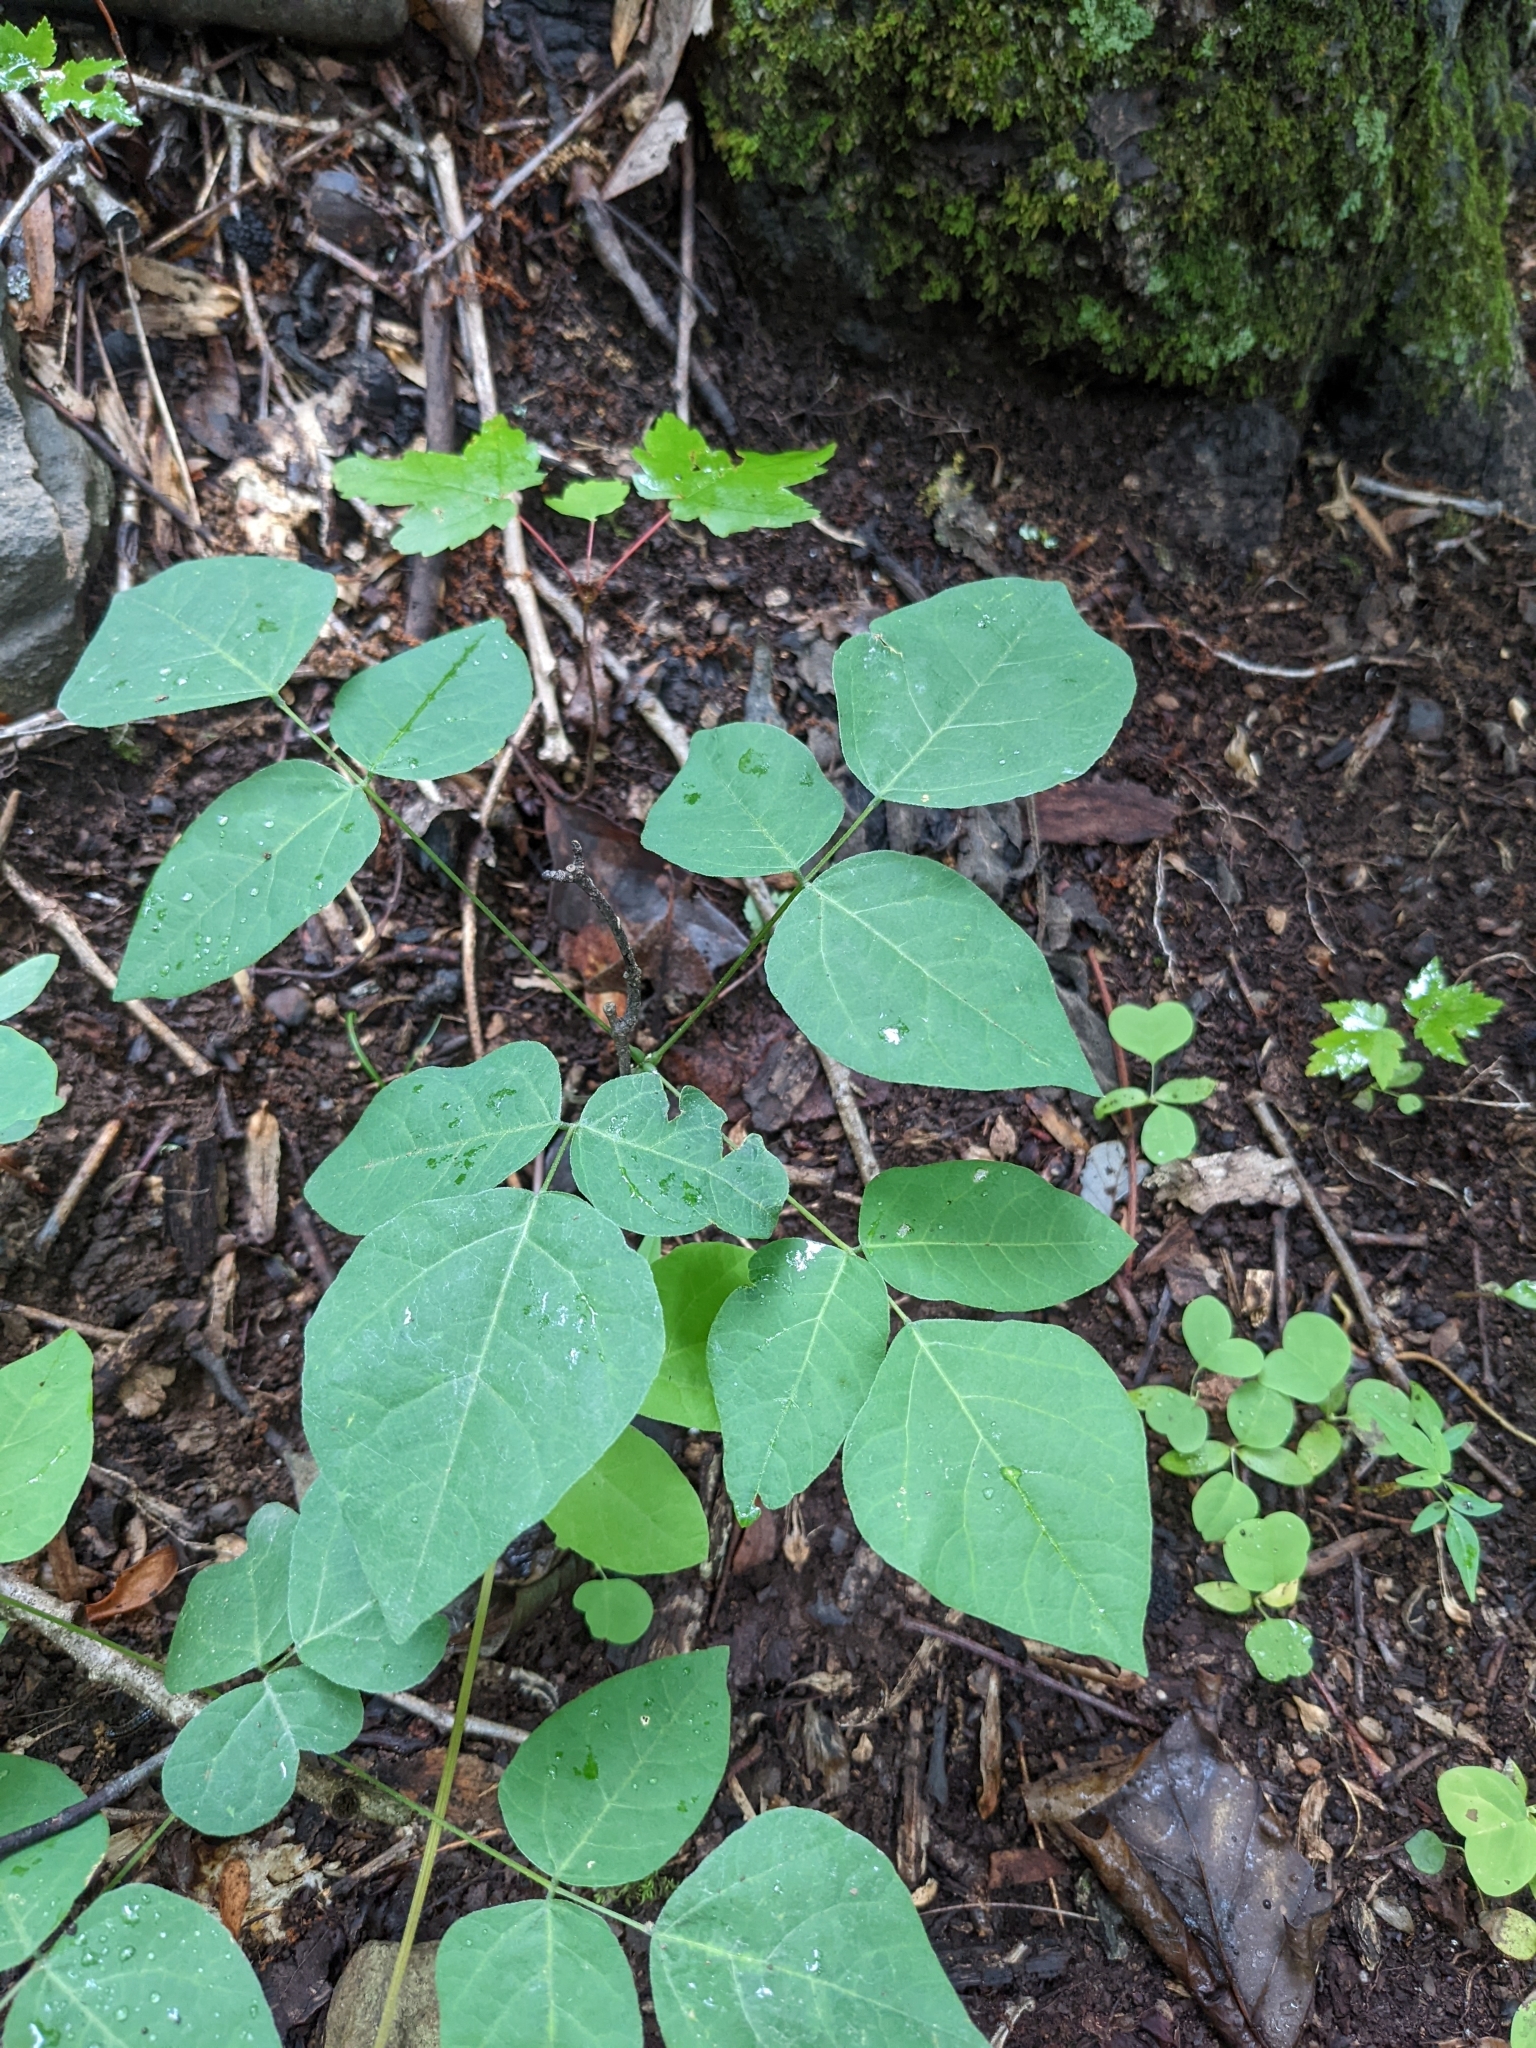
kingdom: Plantae
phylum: Tracheophyta
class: Magnoliopsida
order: Fabales
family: Fabaceae
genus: Hylodesmum
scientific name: Hylodesmum nudiflorum
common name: Bare-stemmed tick-trefoil
